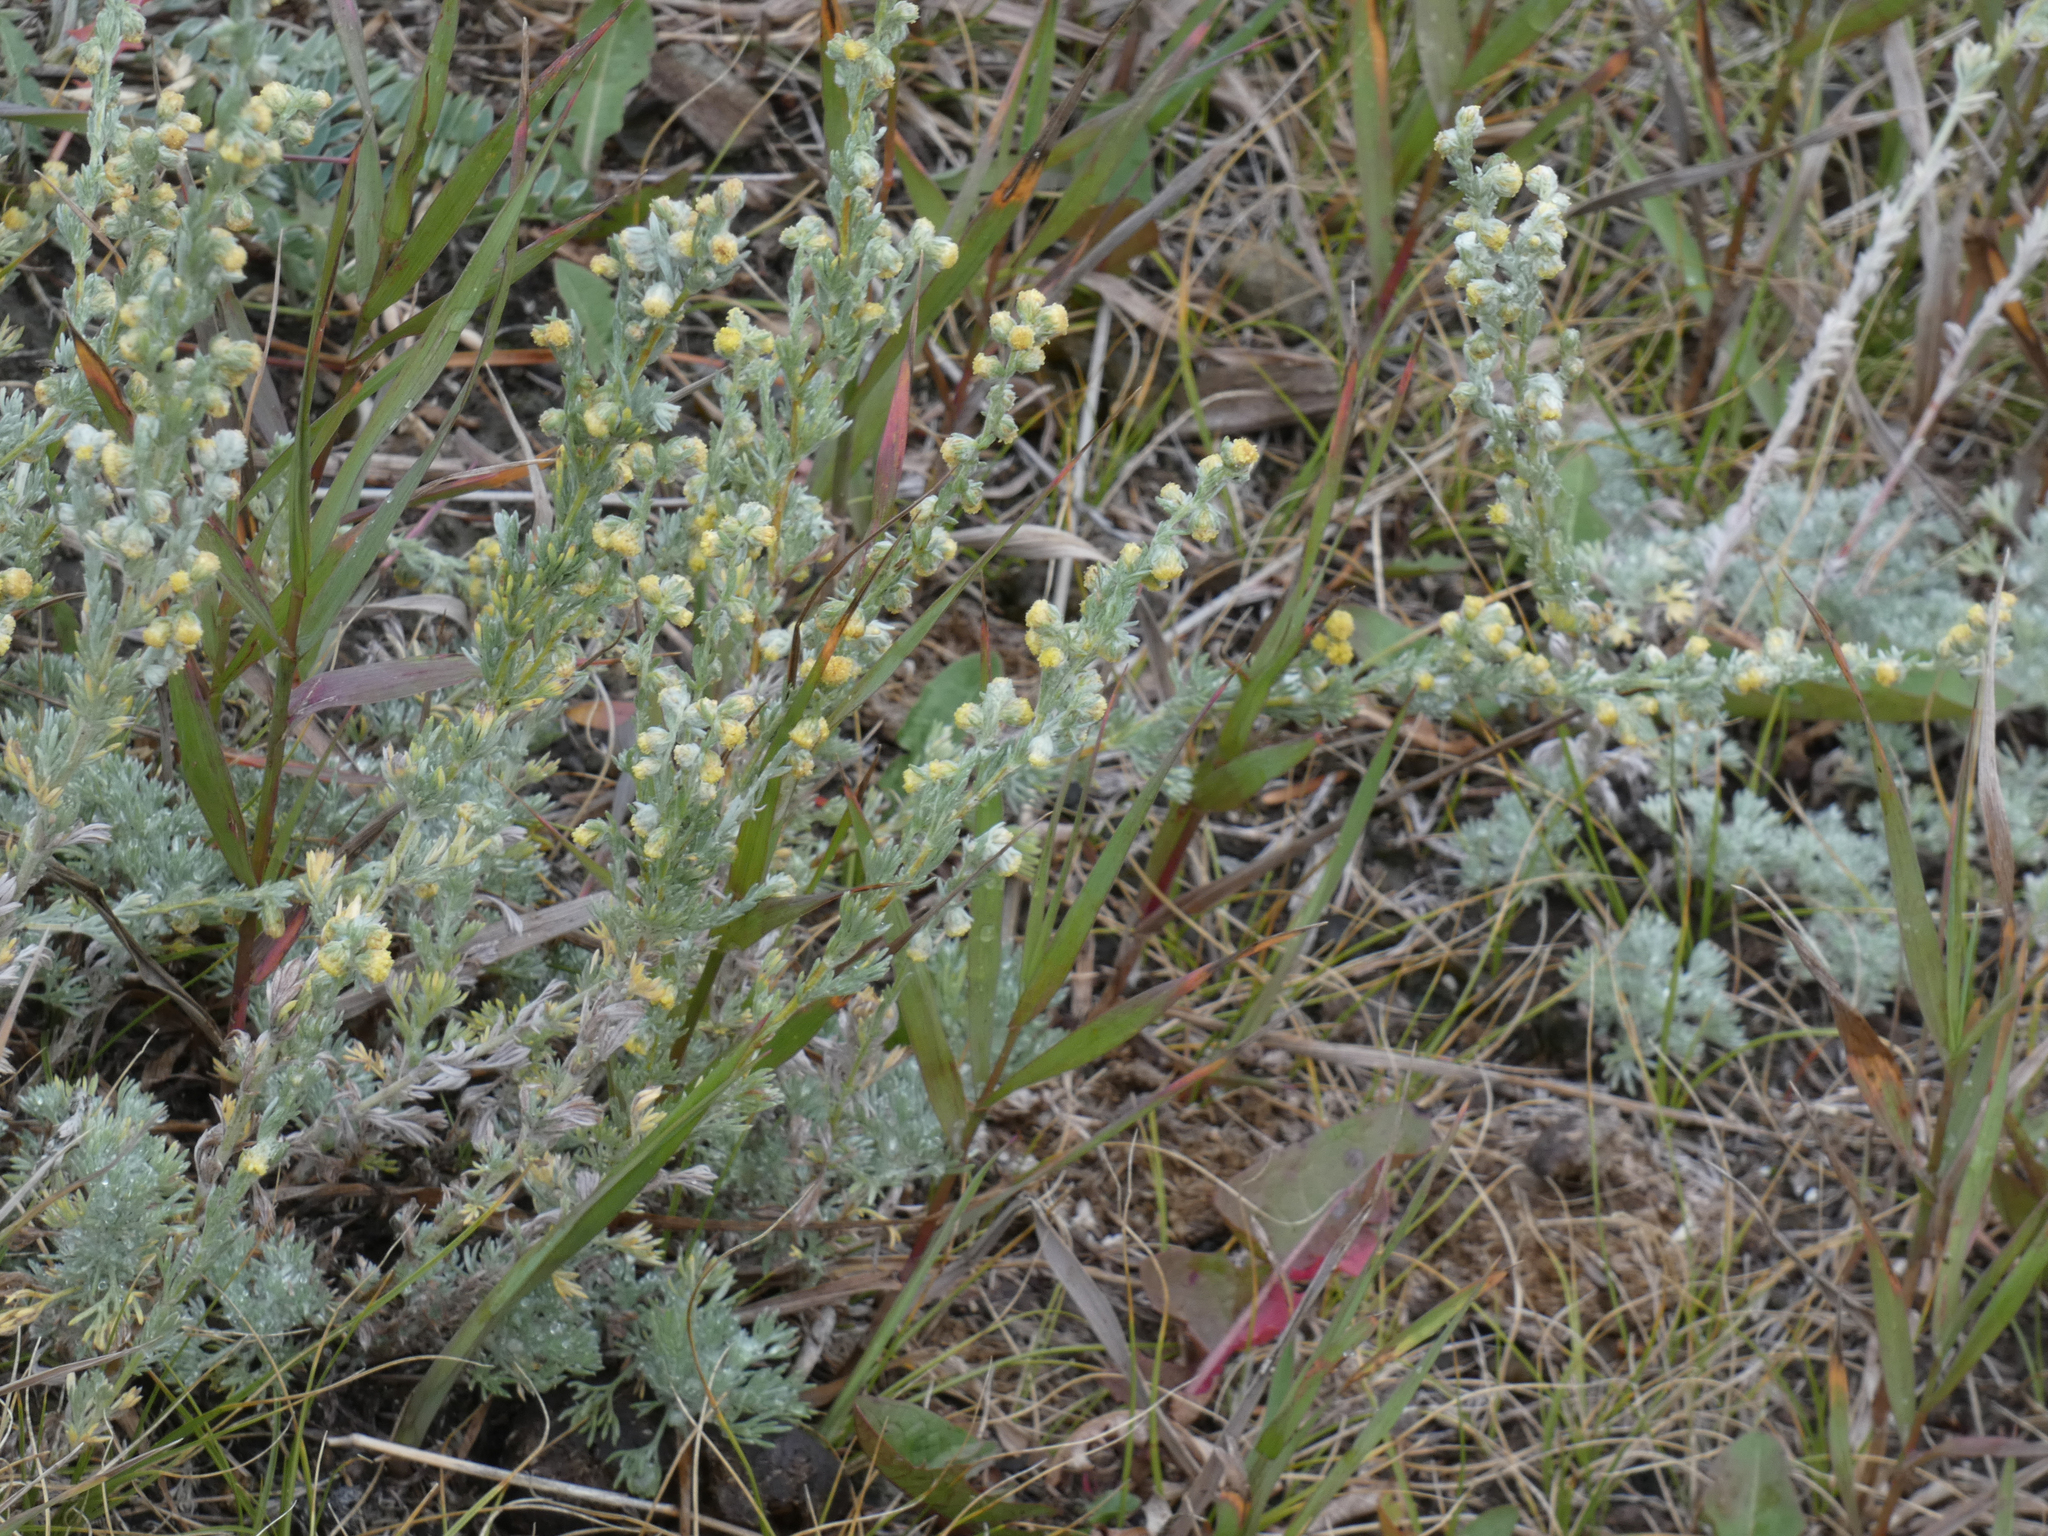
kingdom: Plantae
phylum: Tracheophyta
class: Magnoliopsida
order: Asterales
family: Asteraceae
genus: Artemisia
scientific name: Artemisia frigida
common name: Prairie sagewort
